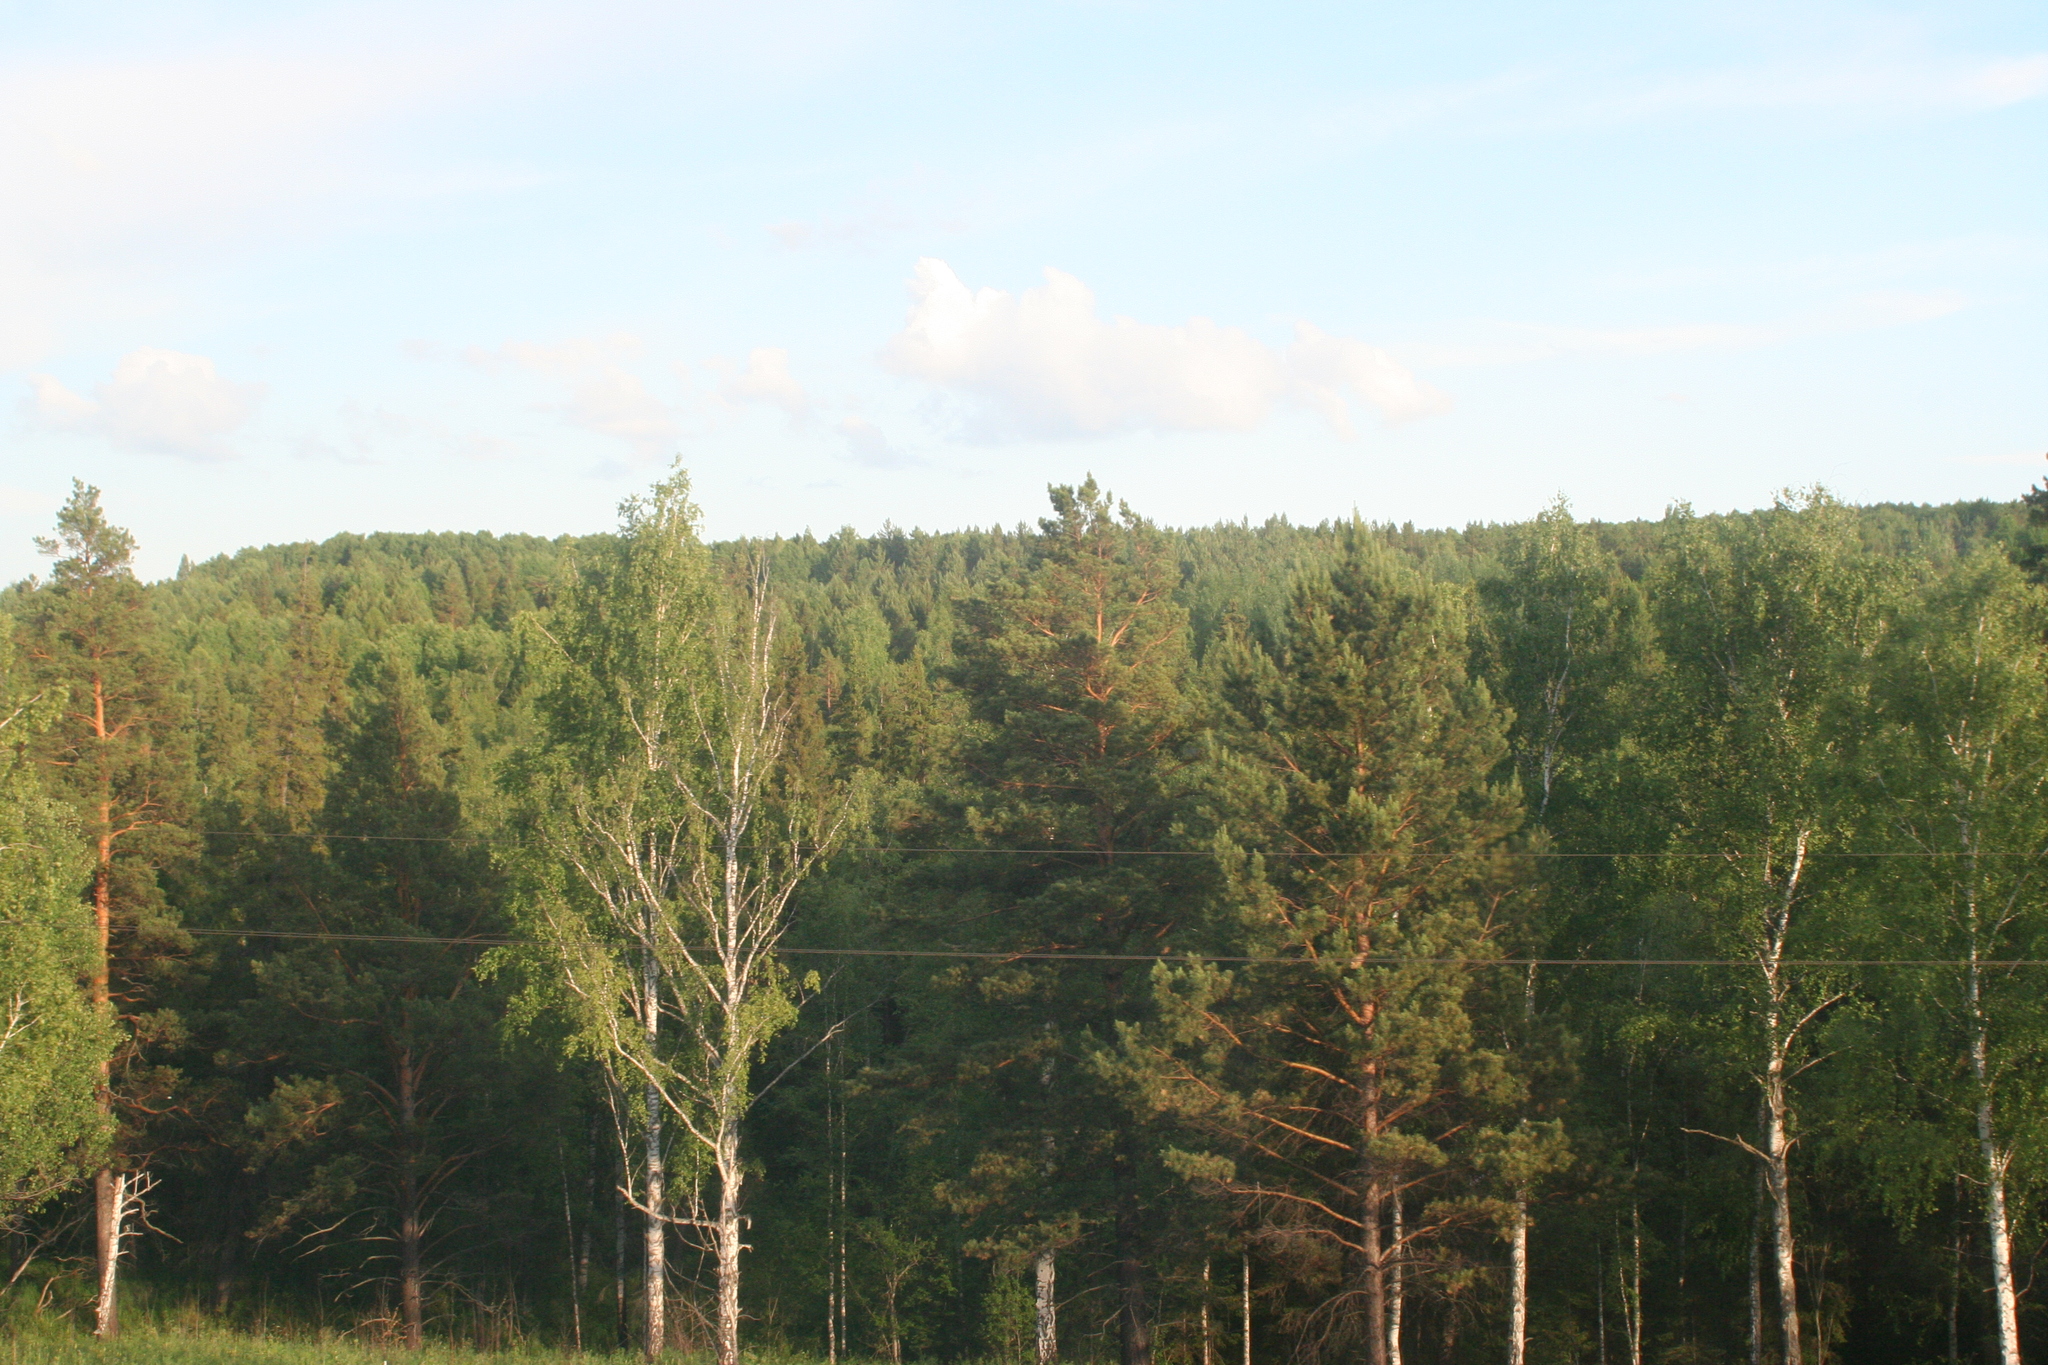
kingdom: Plantae
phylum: Tracheophyta
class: Pinopsida
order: Pinales
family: Pinaceae
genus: Pinus
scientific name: Pinus sylvestris
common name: Scots pine
